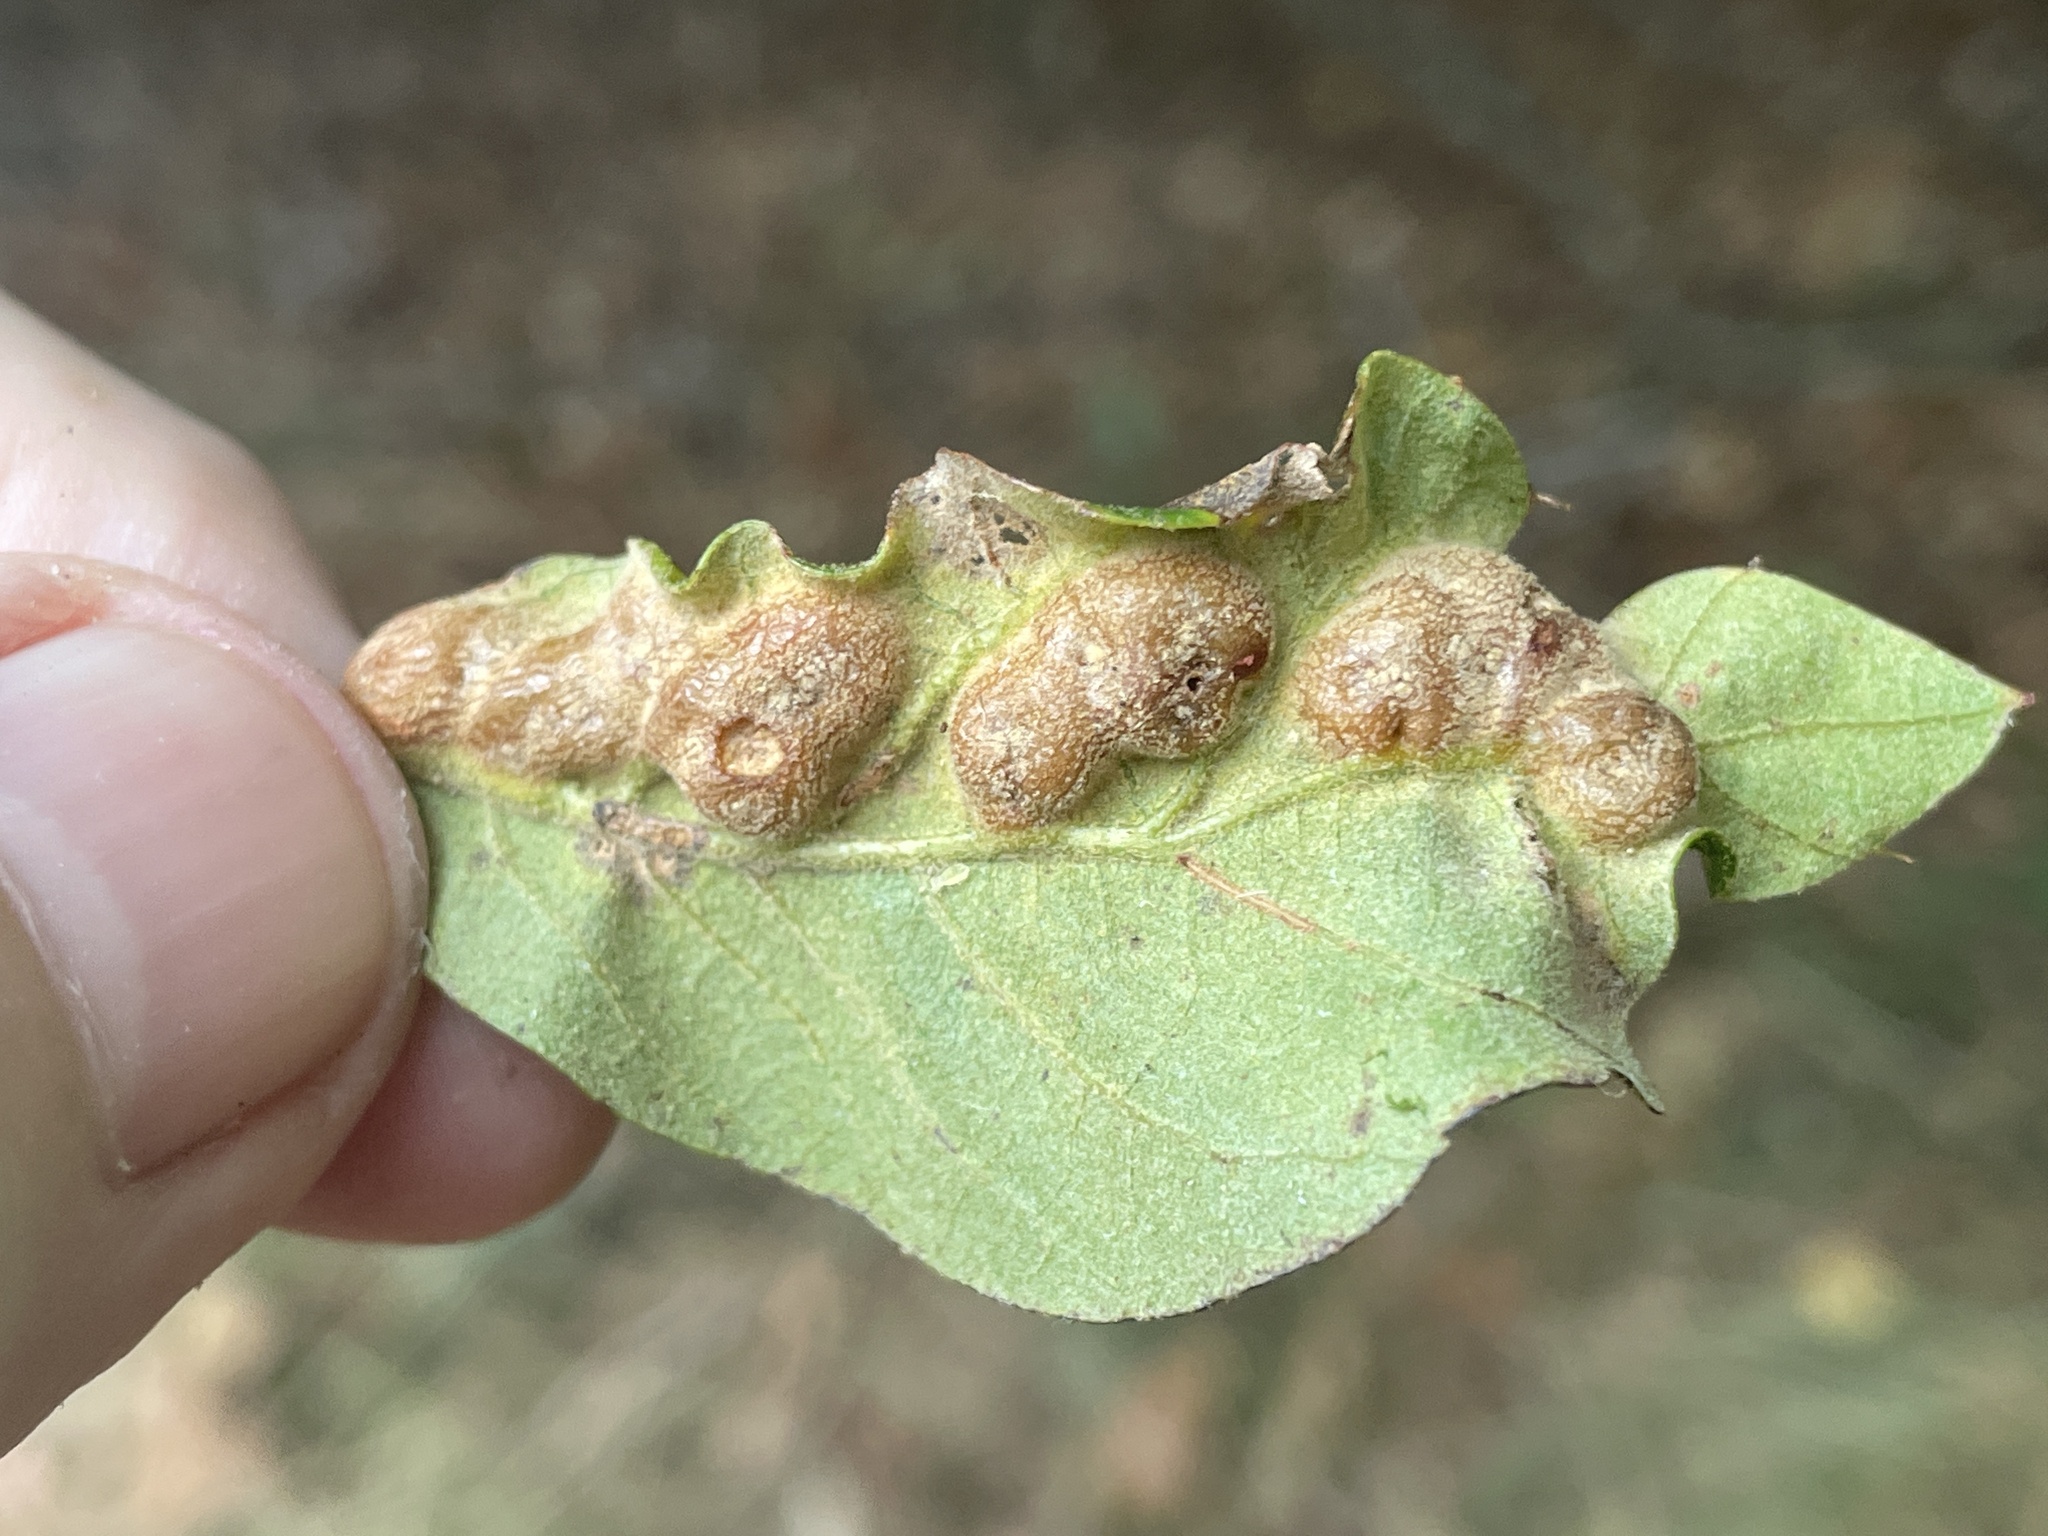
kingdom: Animalia
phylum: Arthropoda
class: Insecta
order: Diptera
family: Cecidomyiidae
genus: Polystepha
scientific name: Polystepha symmetrica
